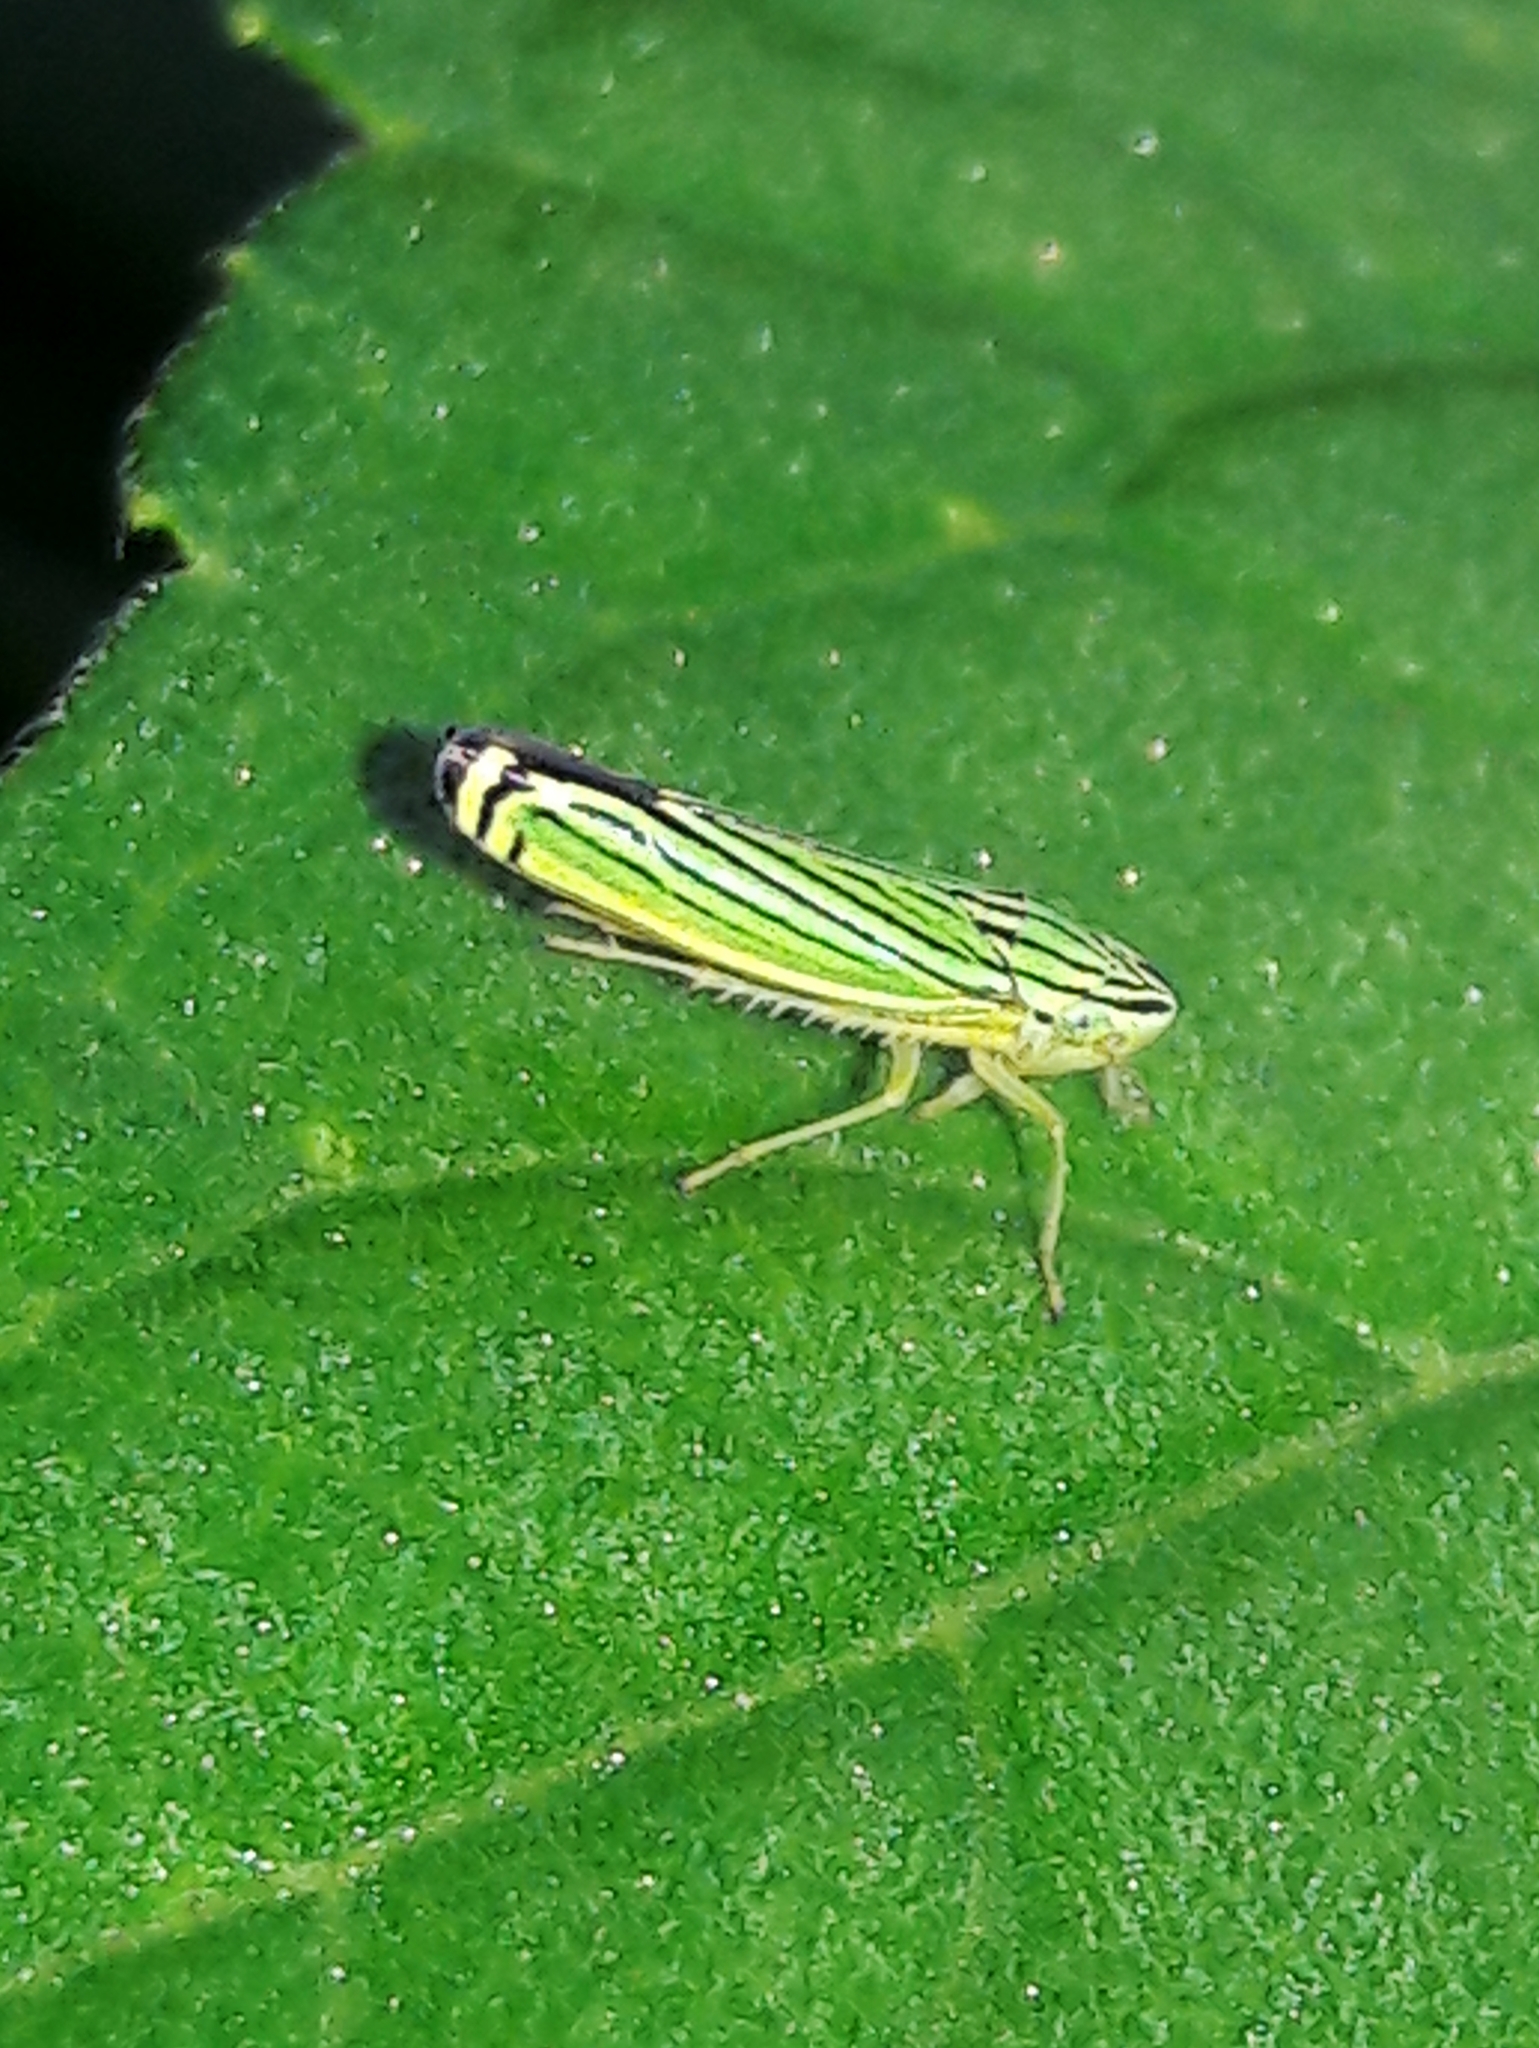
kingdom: Animalia
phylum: Arthropoda
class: Insecta
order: Hemiptera
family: Cicadellidae
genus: Sibovia
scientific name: Sibovia nielsoni
